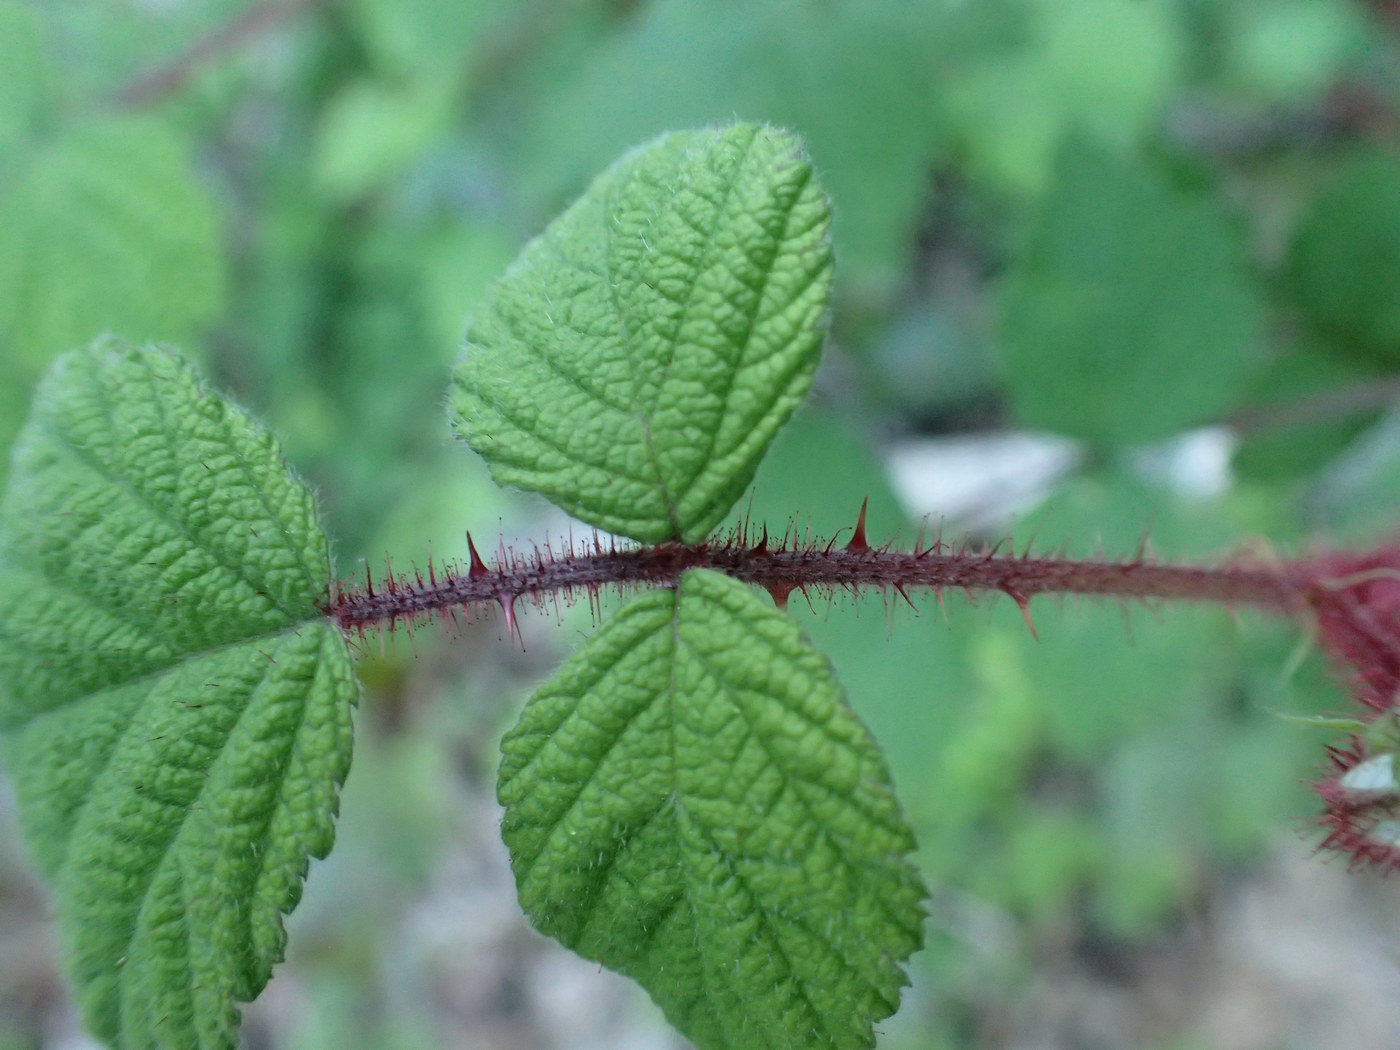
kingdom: Plantae
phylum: Tracheophyta
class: Magnoliopsida
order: Rosales
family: Rosaceae
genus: Rubus
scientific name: Rubus phoenicolasius
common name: Japanese wineberry
